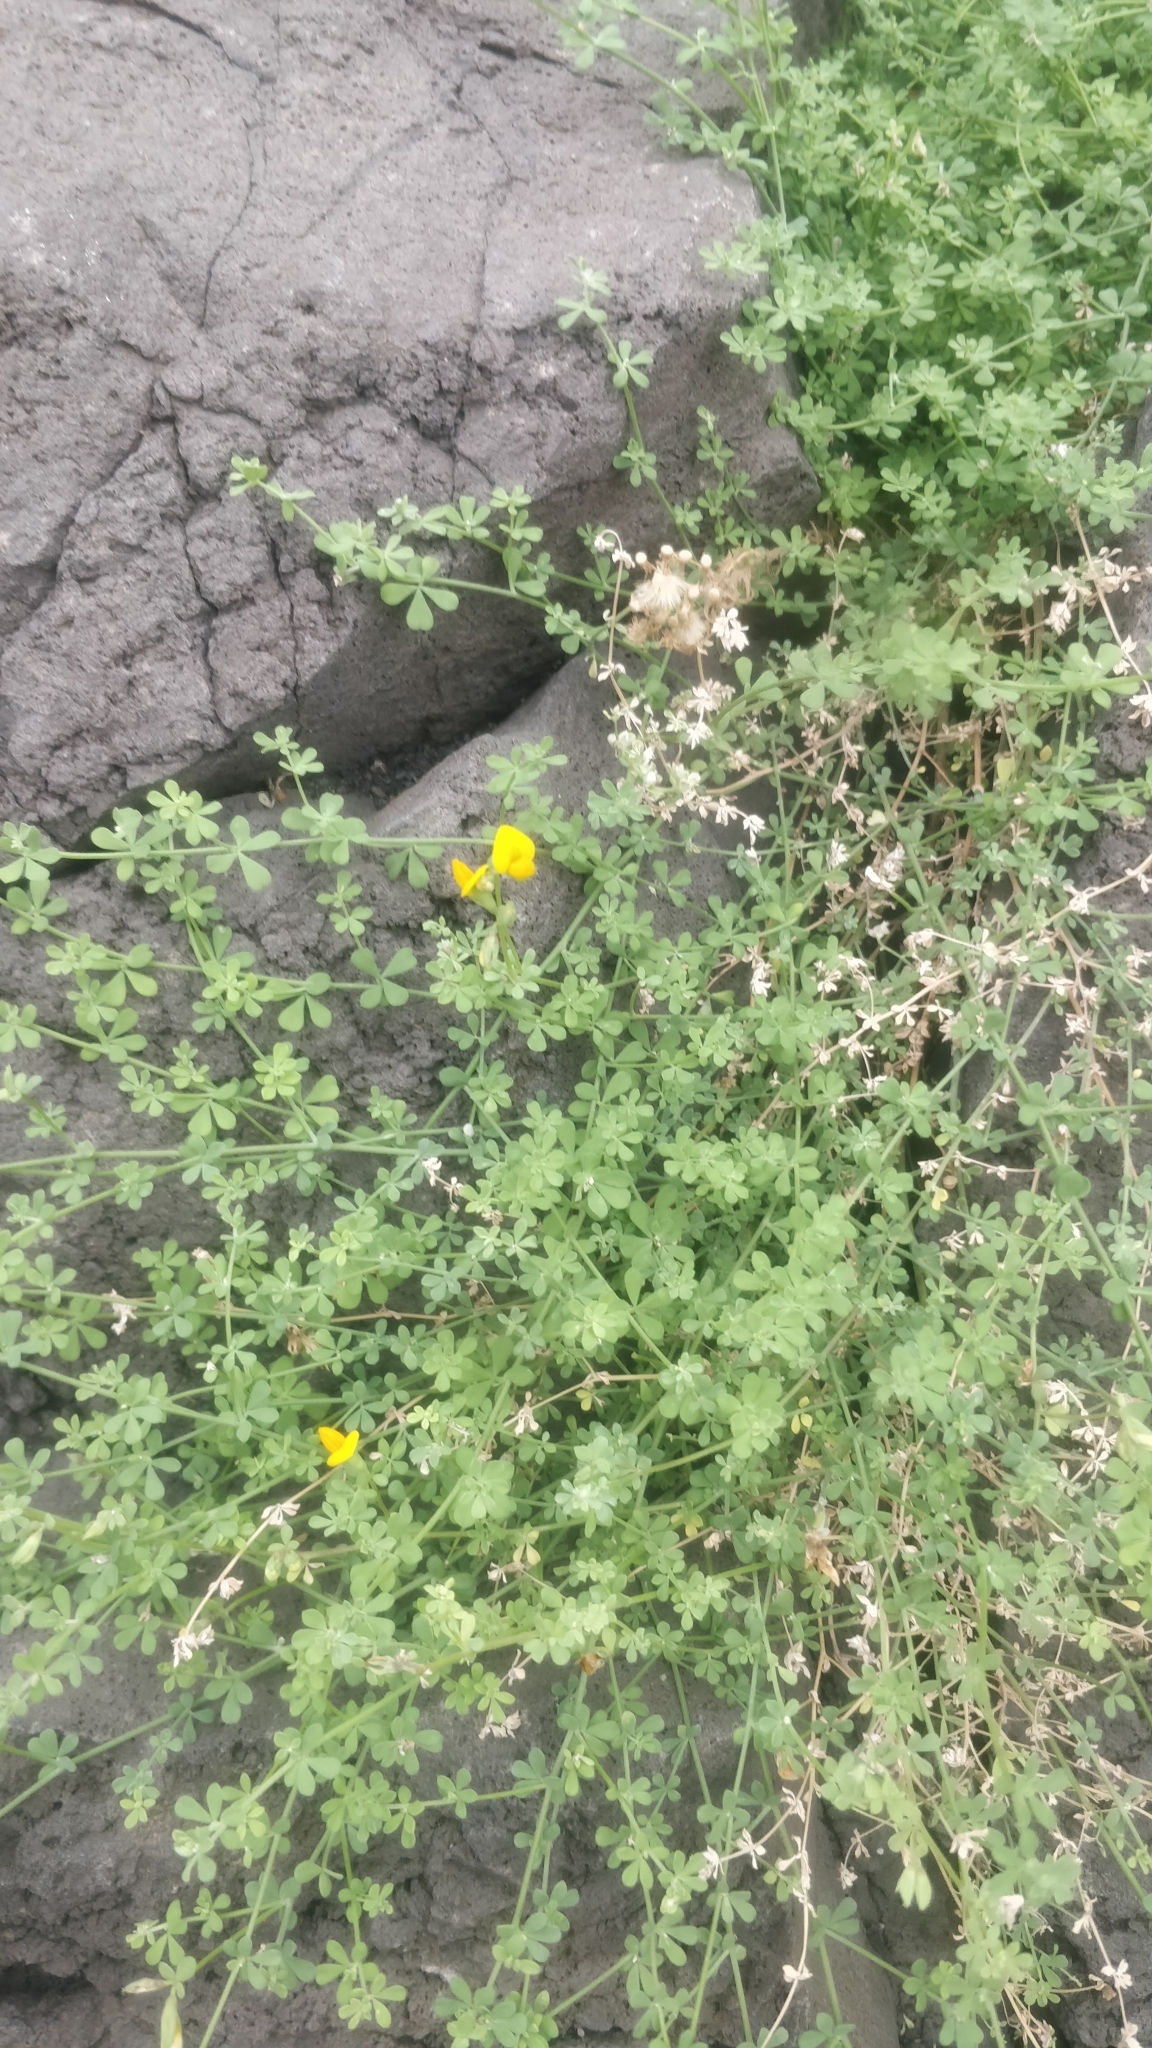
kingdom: Plantae
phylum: Tracheophyta
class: Magnoliopsida
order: Fabales
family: Fabaceae
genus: Lotus
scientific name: Lotus glaucus
